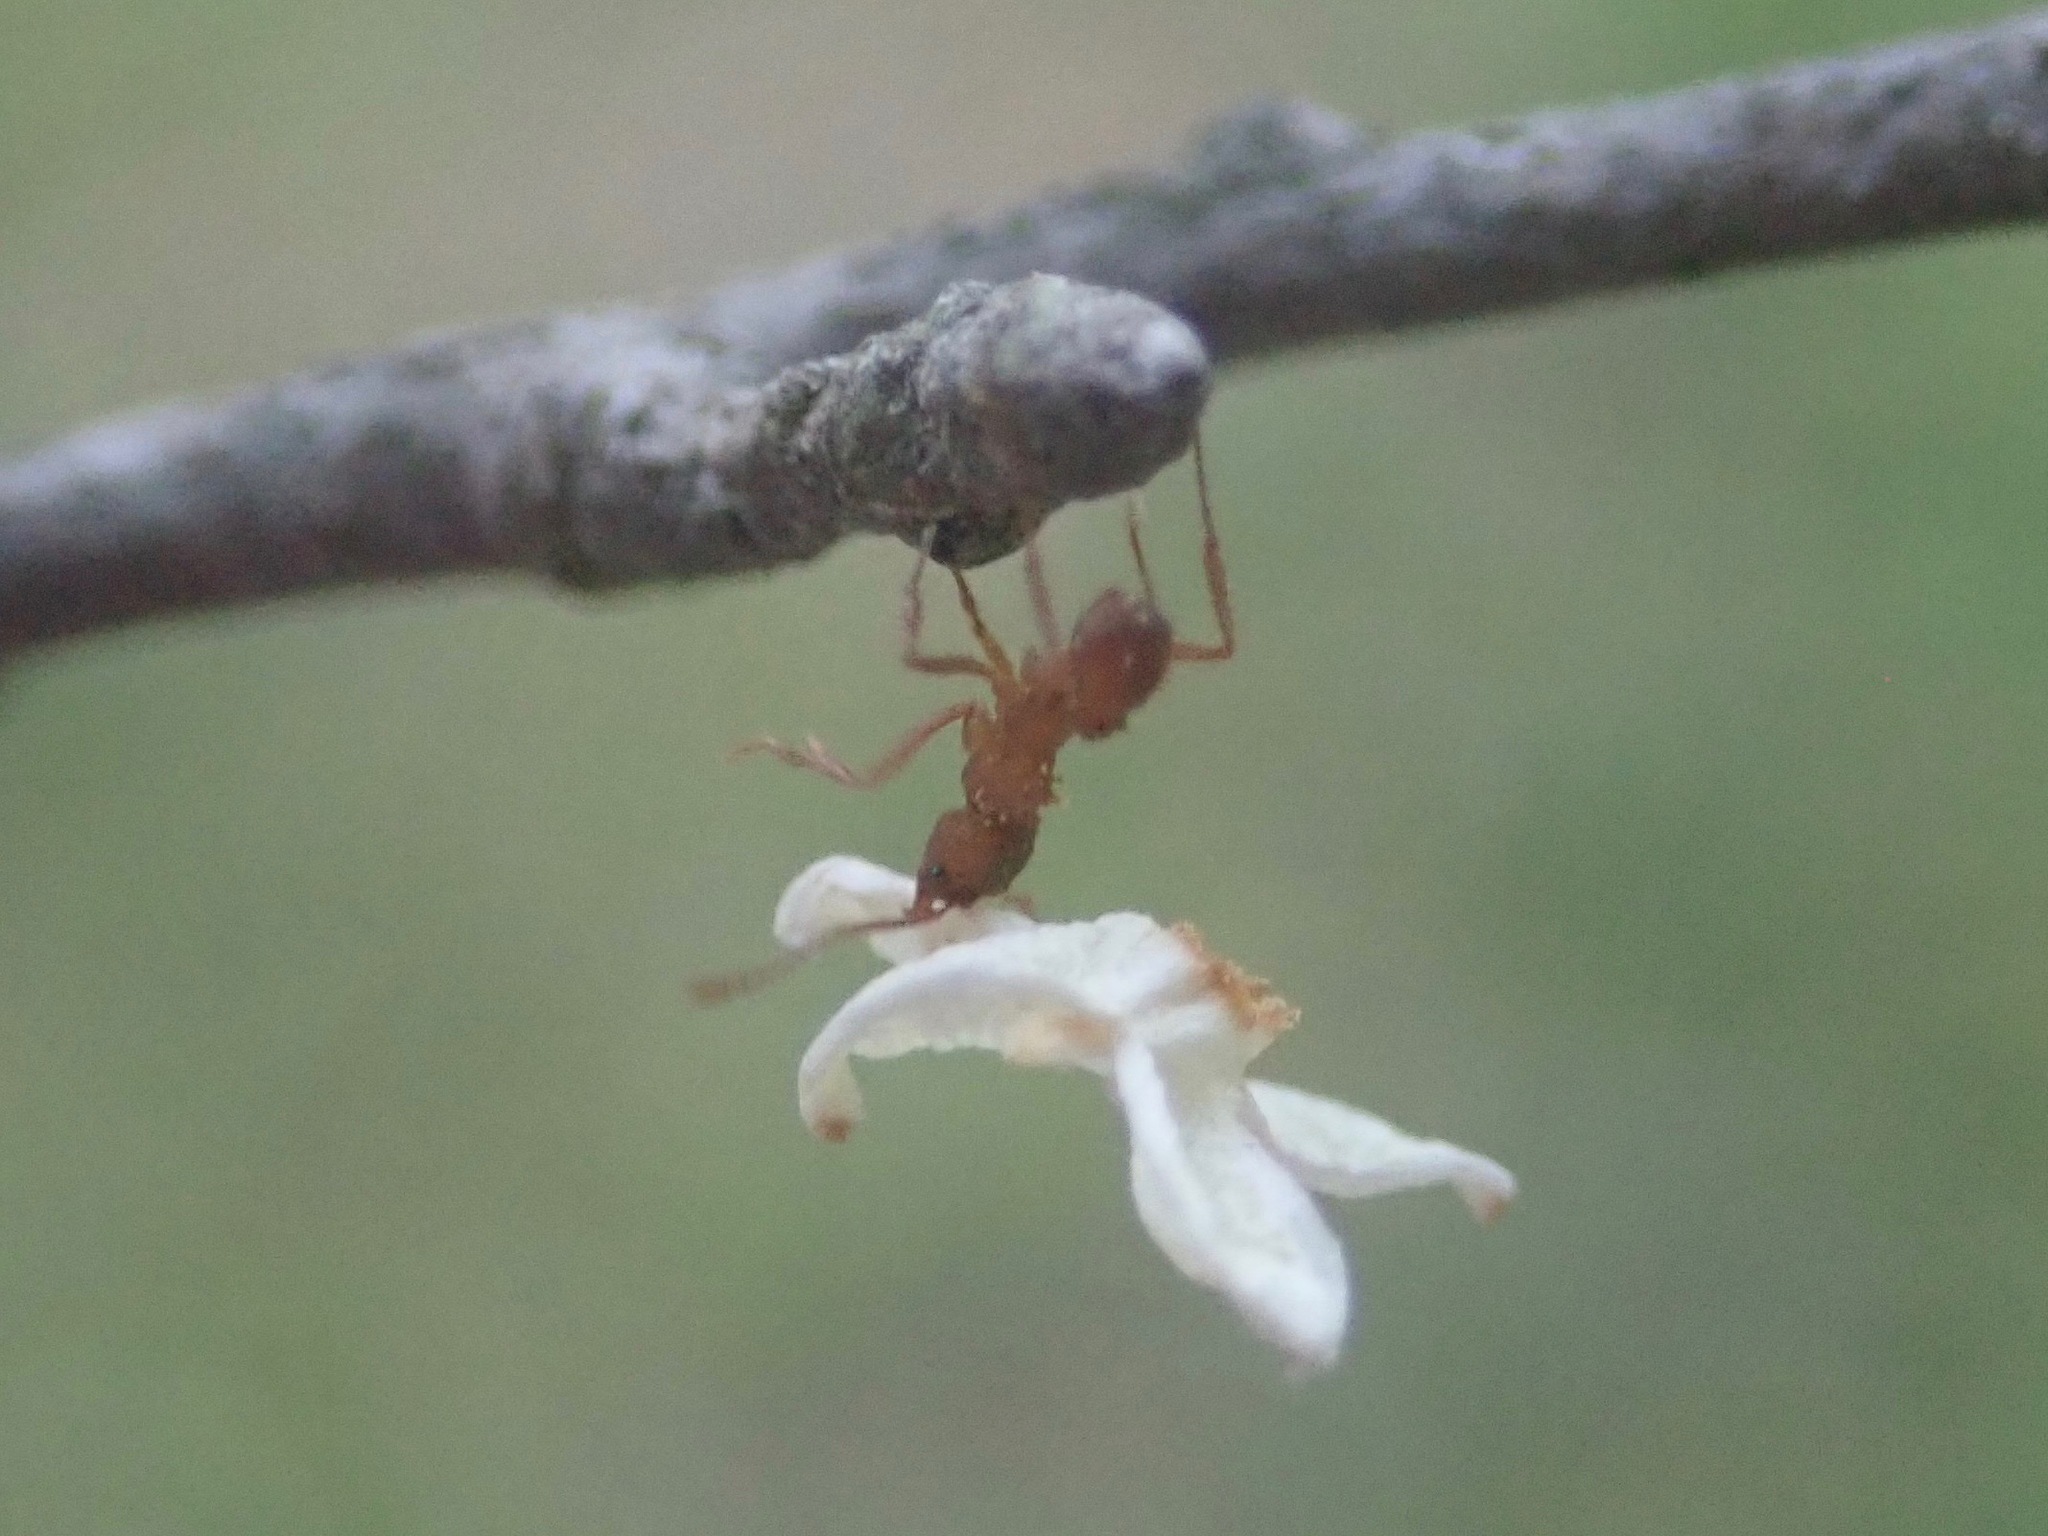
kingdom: Animalia
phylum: Arthropoda
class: Insecta
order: Hymenoptera
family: Formicidae
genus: Trachymyrmex
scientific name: Trachymyrmex septentrionalis
